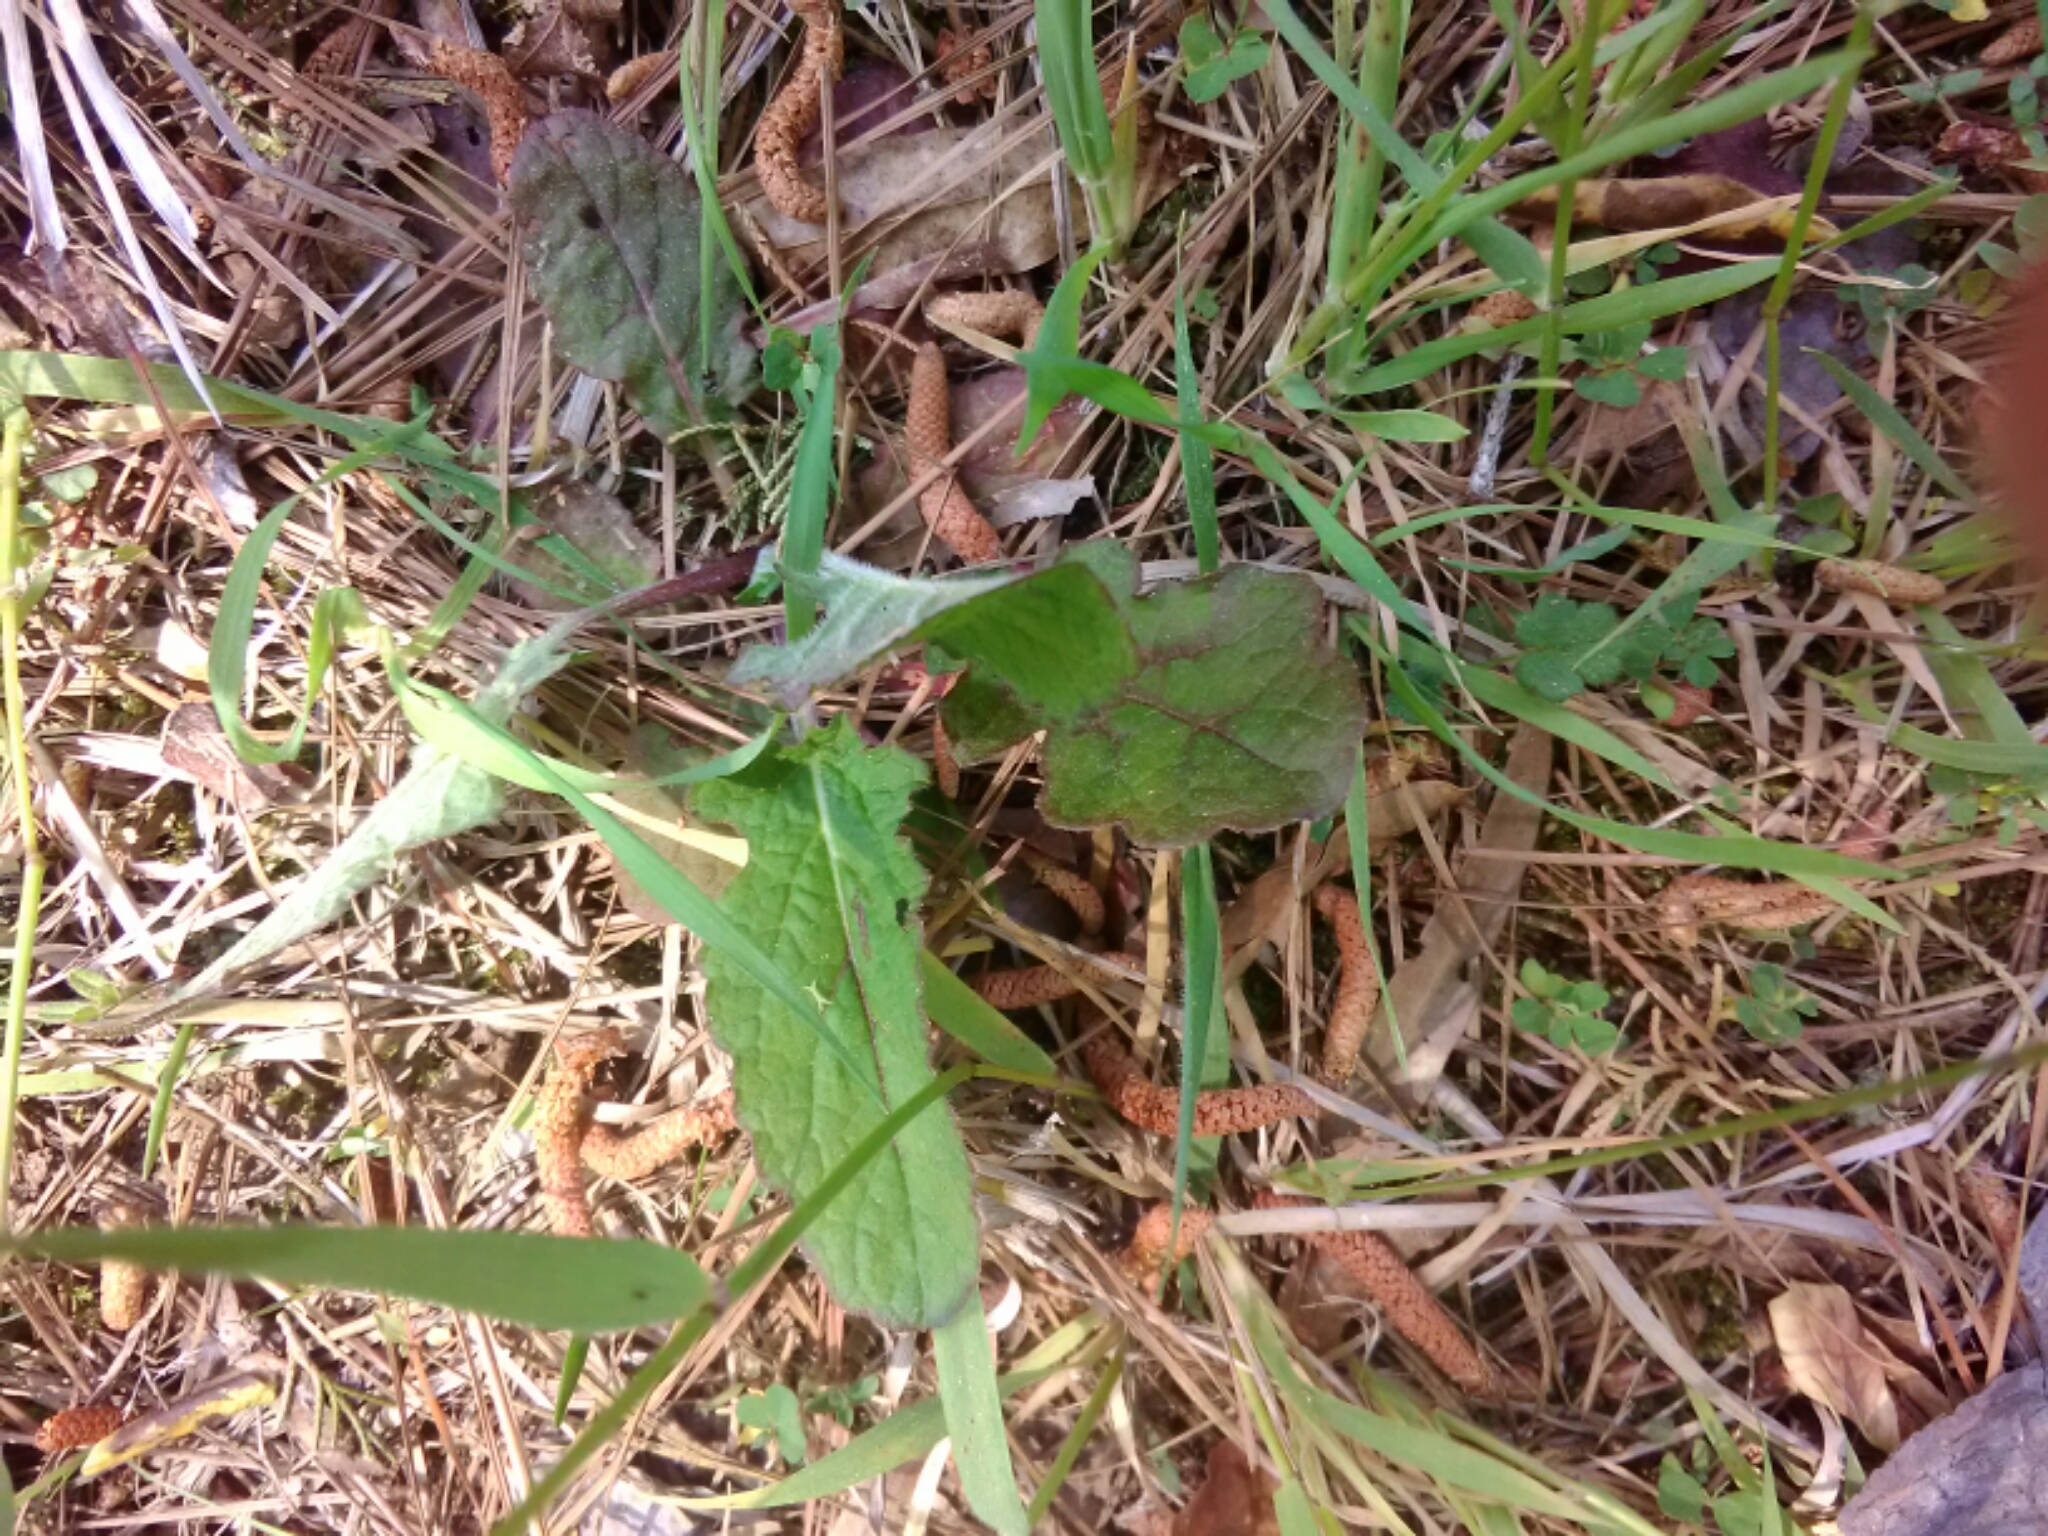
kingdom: Plantae
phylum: Tracheophyta
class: Magnoliopsida
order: Lamiales
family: Lamiaceae
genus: Salvia
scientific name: Salvia lyrata
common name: Cancerweed
